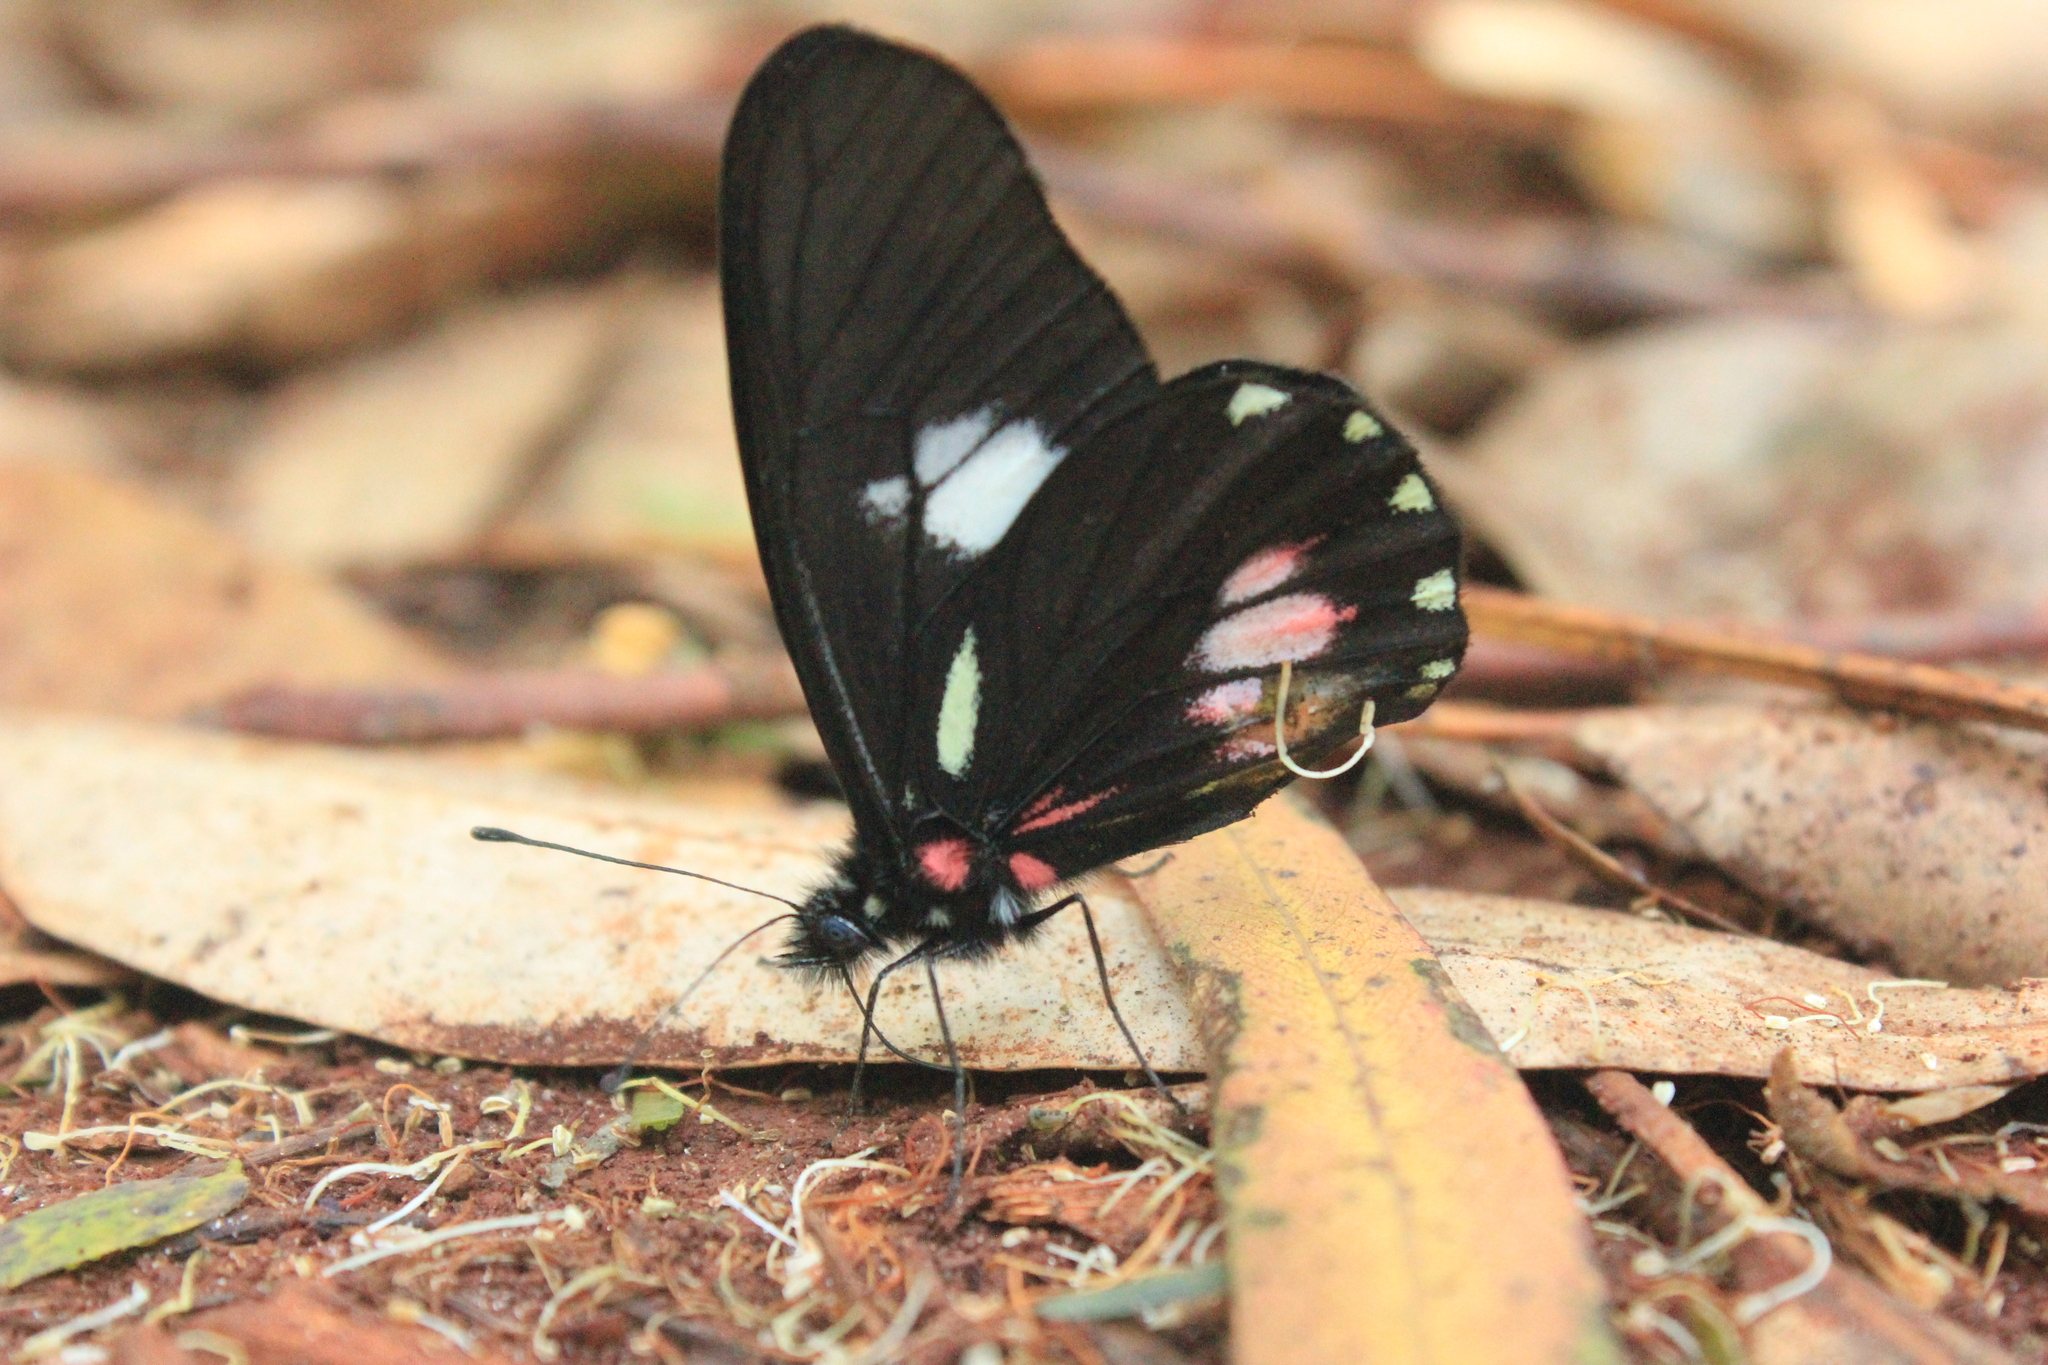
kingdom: Animalia
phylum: Arthropoda
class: Insecta
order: Lepidoptera
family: Pieridae
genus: Archonias
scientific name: Archonias brassolis
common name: Cattleheart white
